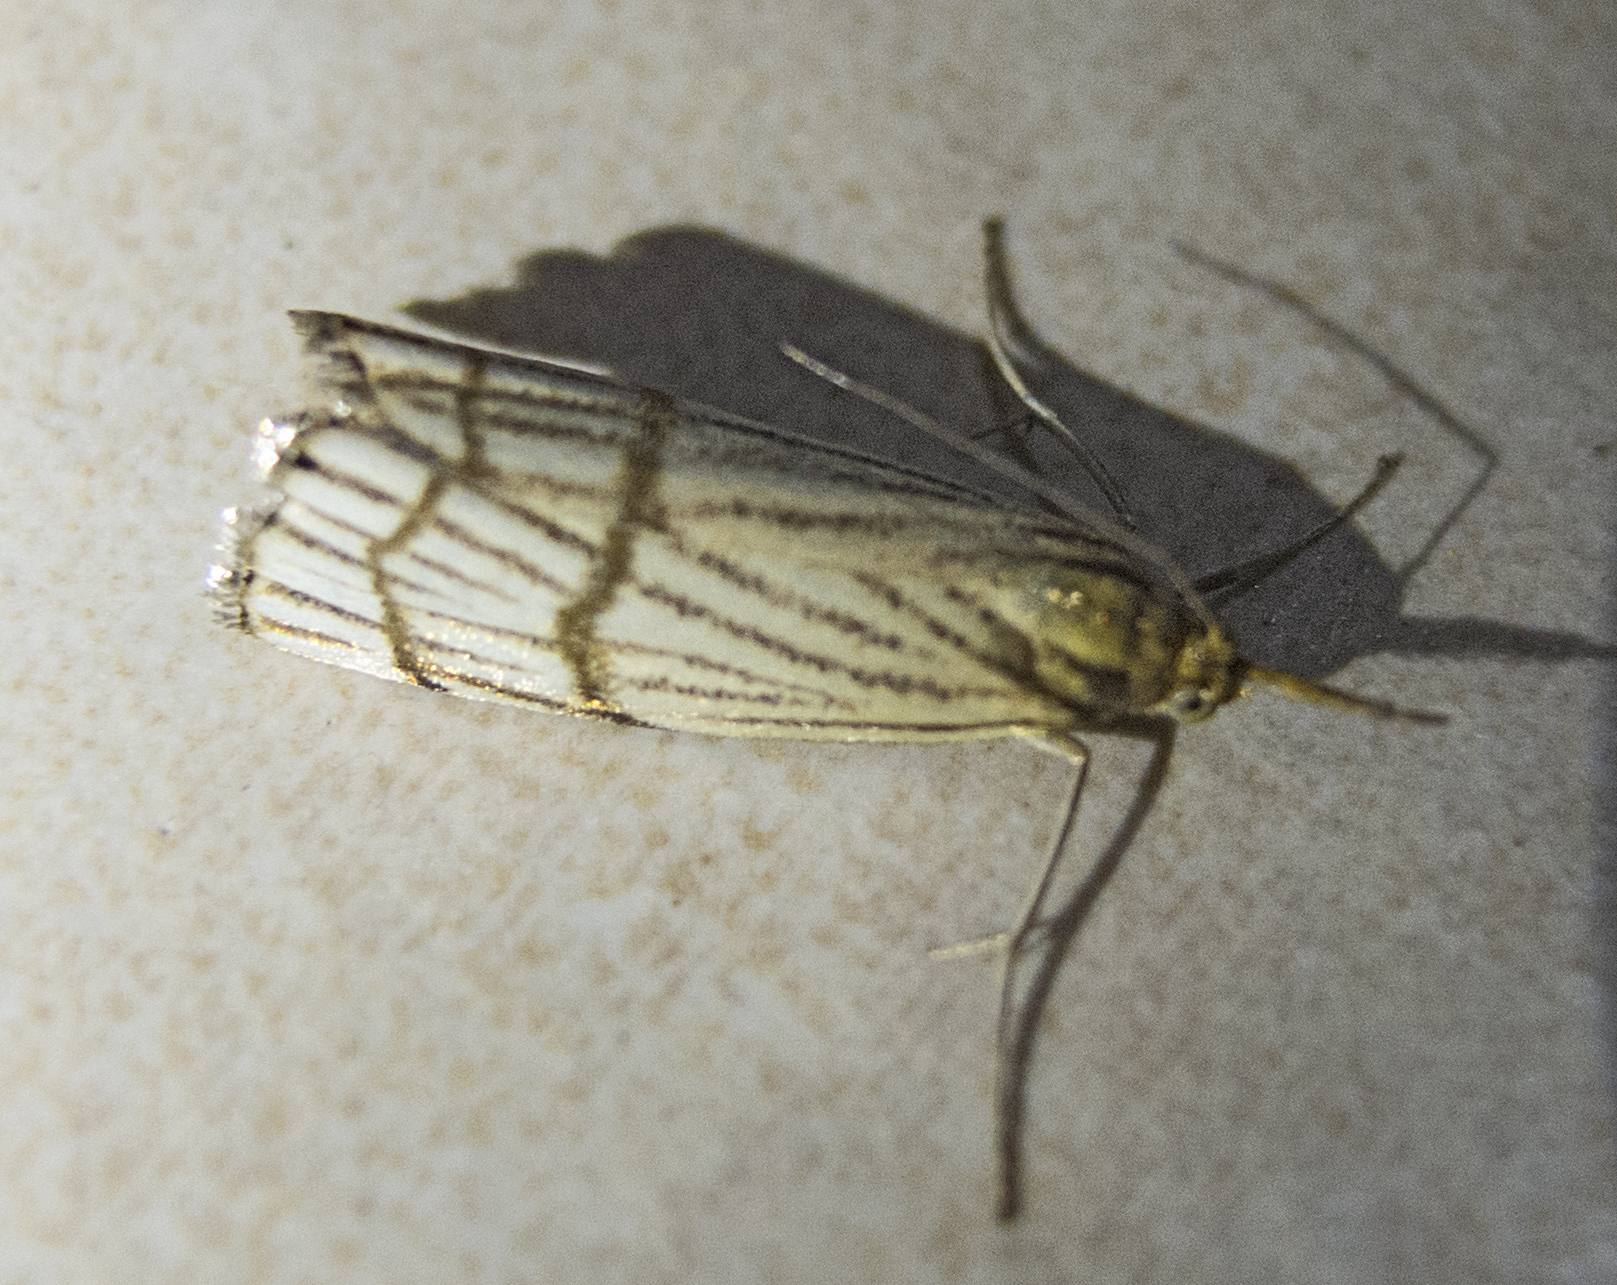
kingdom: Animalia
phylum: Arthropoda
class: Insecta
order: Lepidoptera
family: Crambidae
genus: Chrysocrambus
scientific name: Chrysocrambus linetella
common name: Orange-bar grass-veneer
